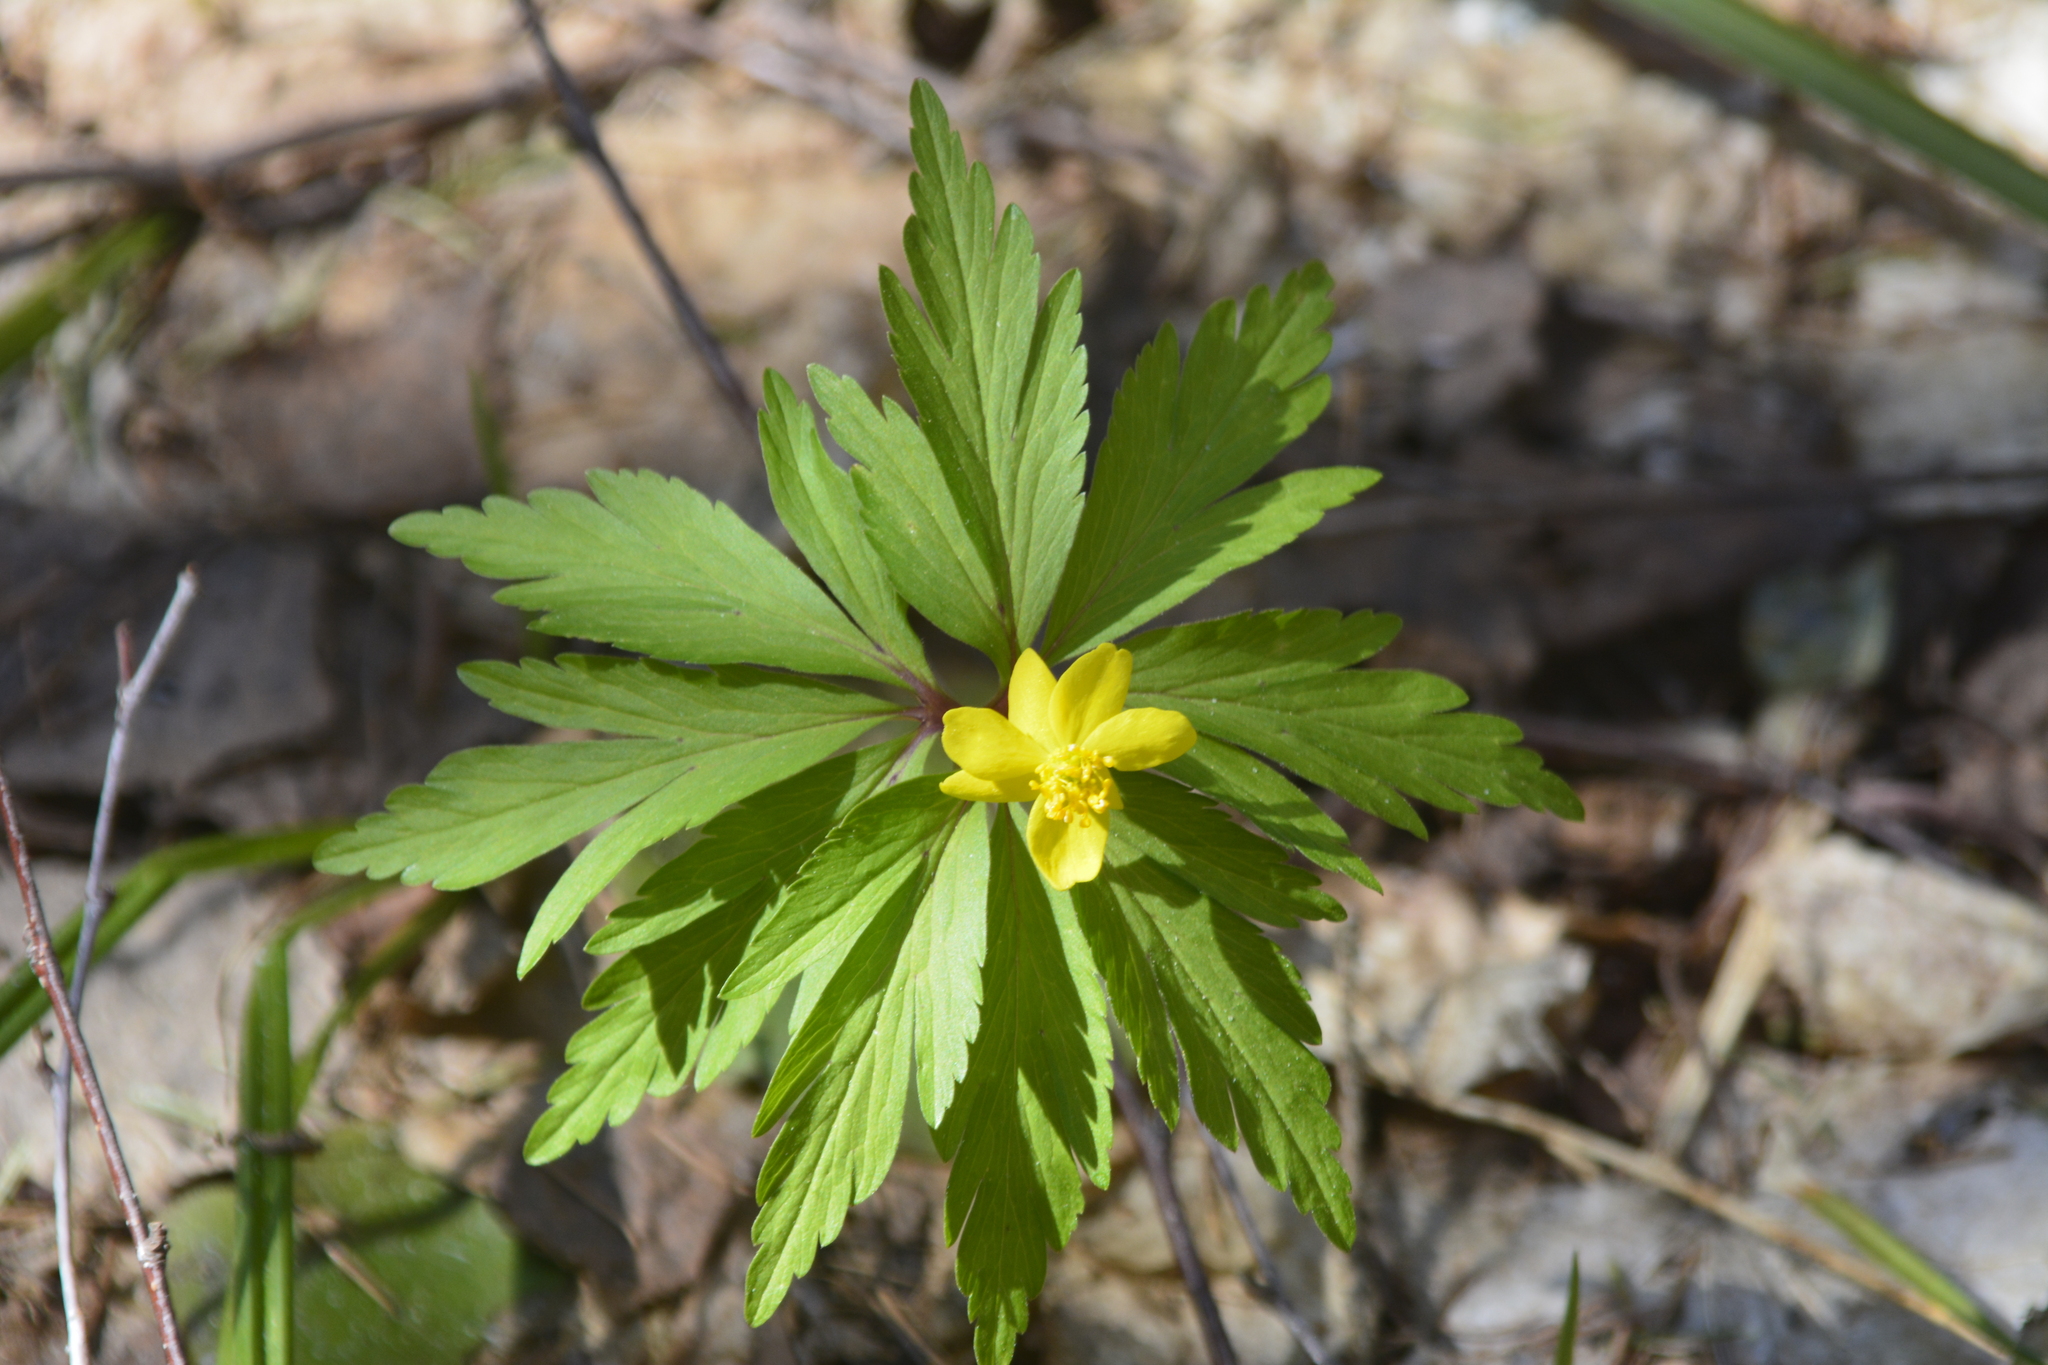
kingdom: Plantae
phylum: Tracheophyta
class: Magnoliopsida
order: Ranunculales
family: Ranunculaceae
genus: Anemone
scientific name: Anemone ranunculoides
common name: Yellow anemone
